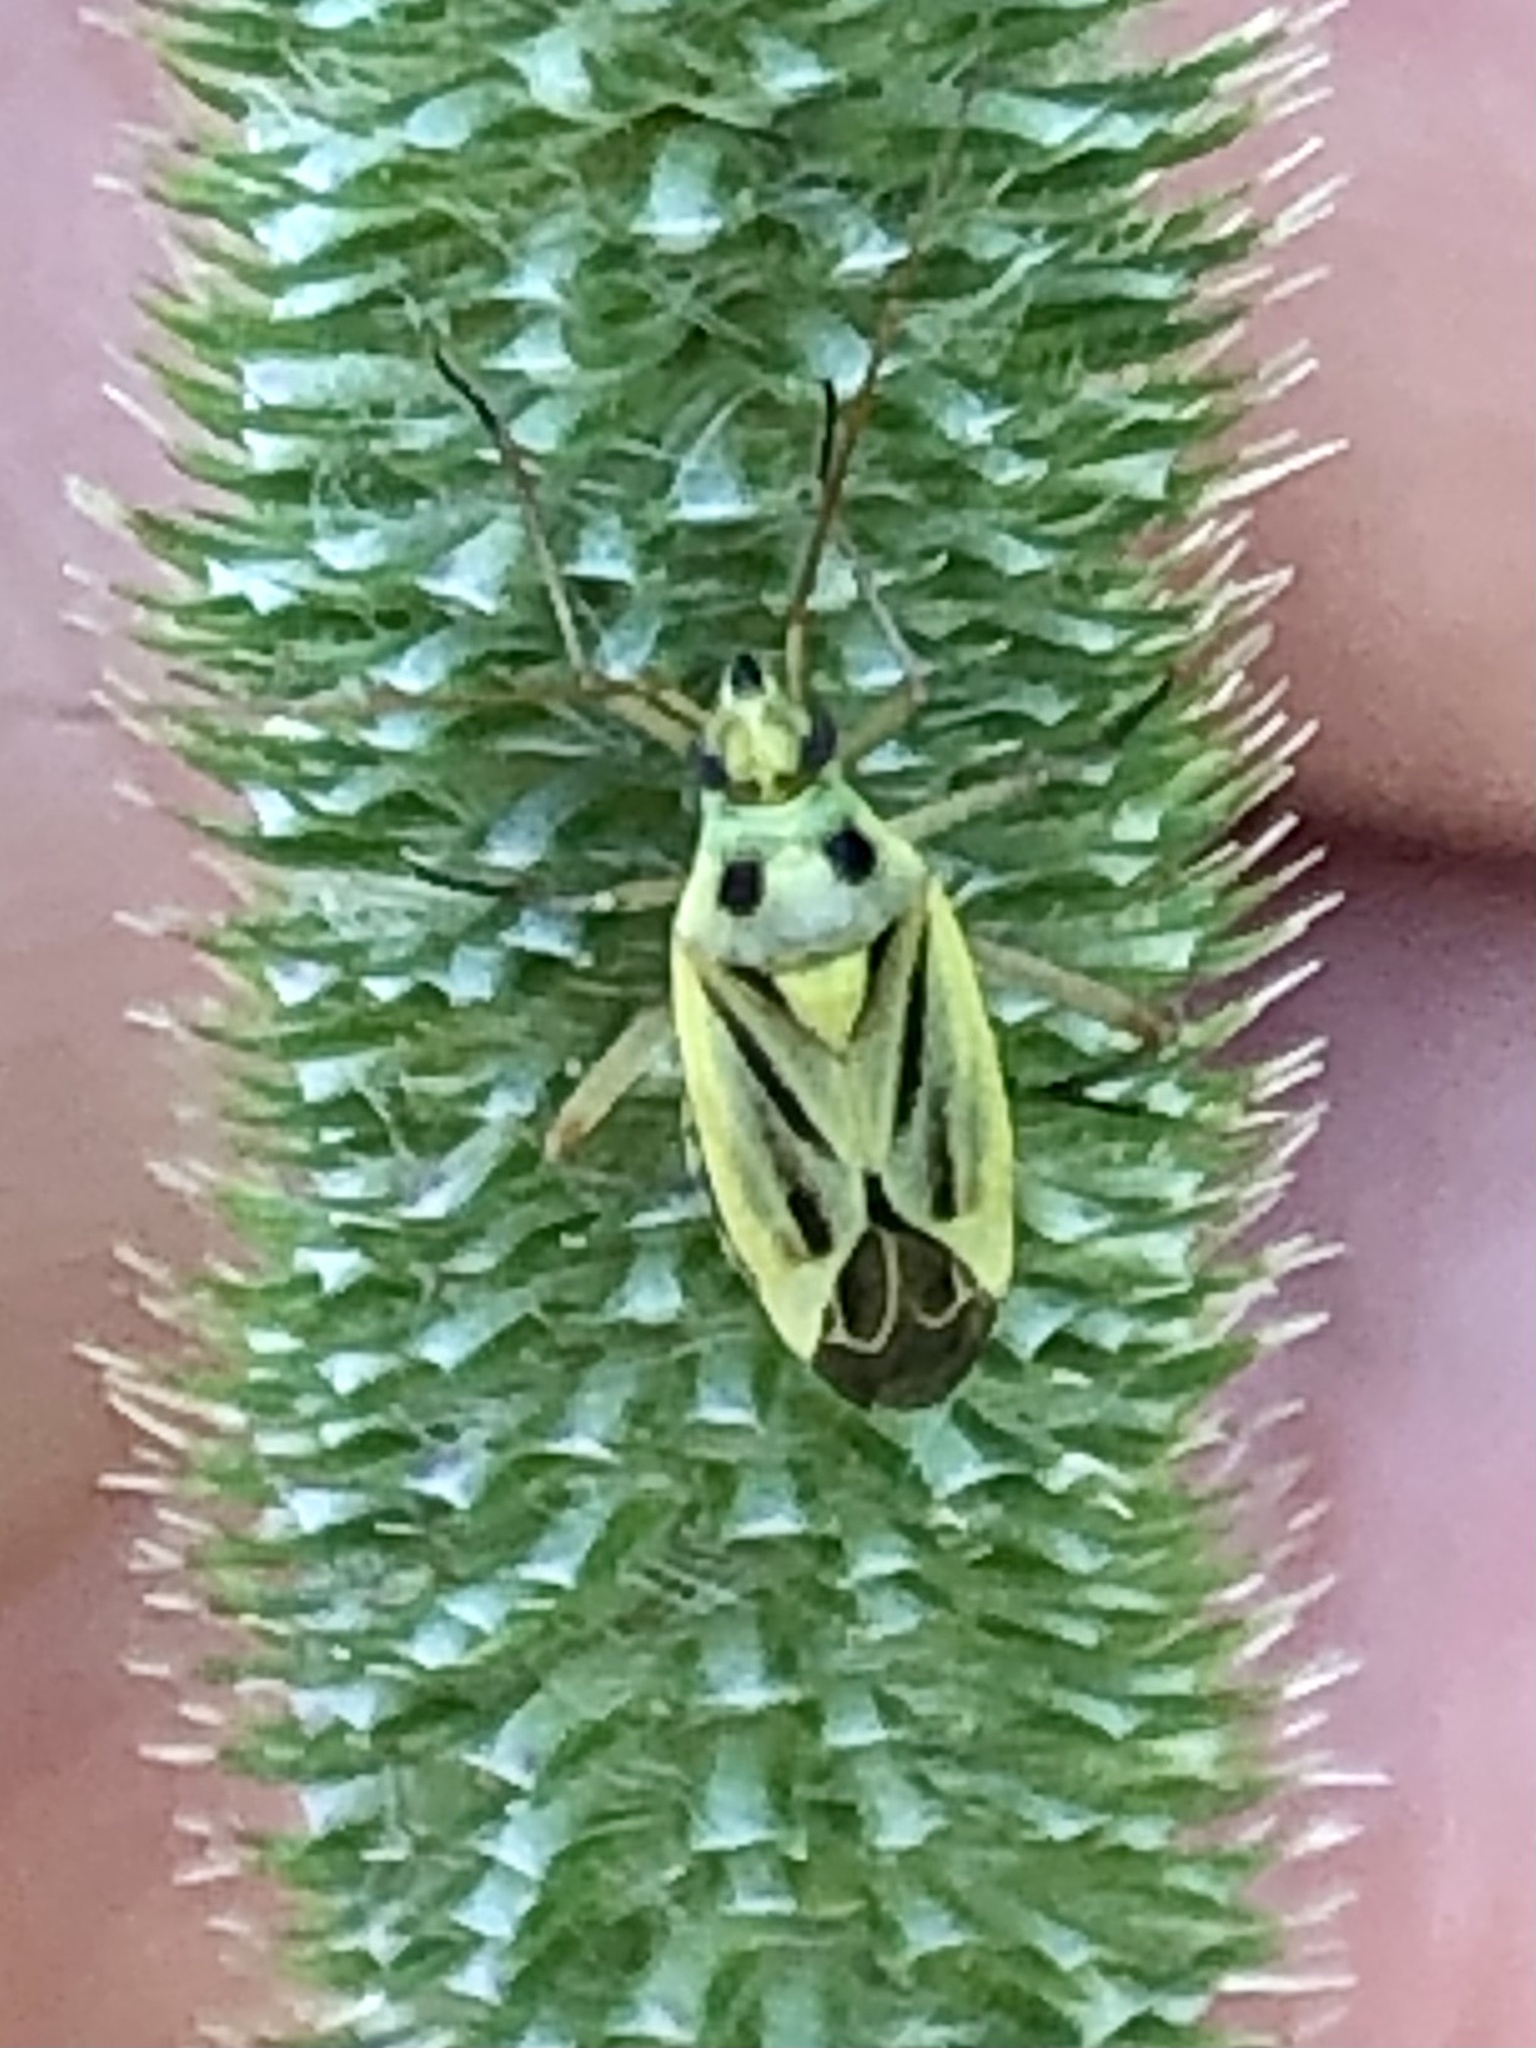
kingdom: Animalia
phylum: Arthropoda
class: Insecta
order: Hemiptera
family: Miridae
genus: Stenotus
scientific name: Stenotus binotatus
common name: Plant bug
